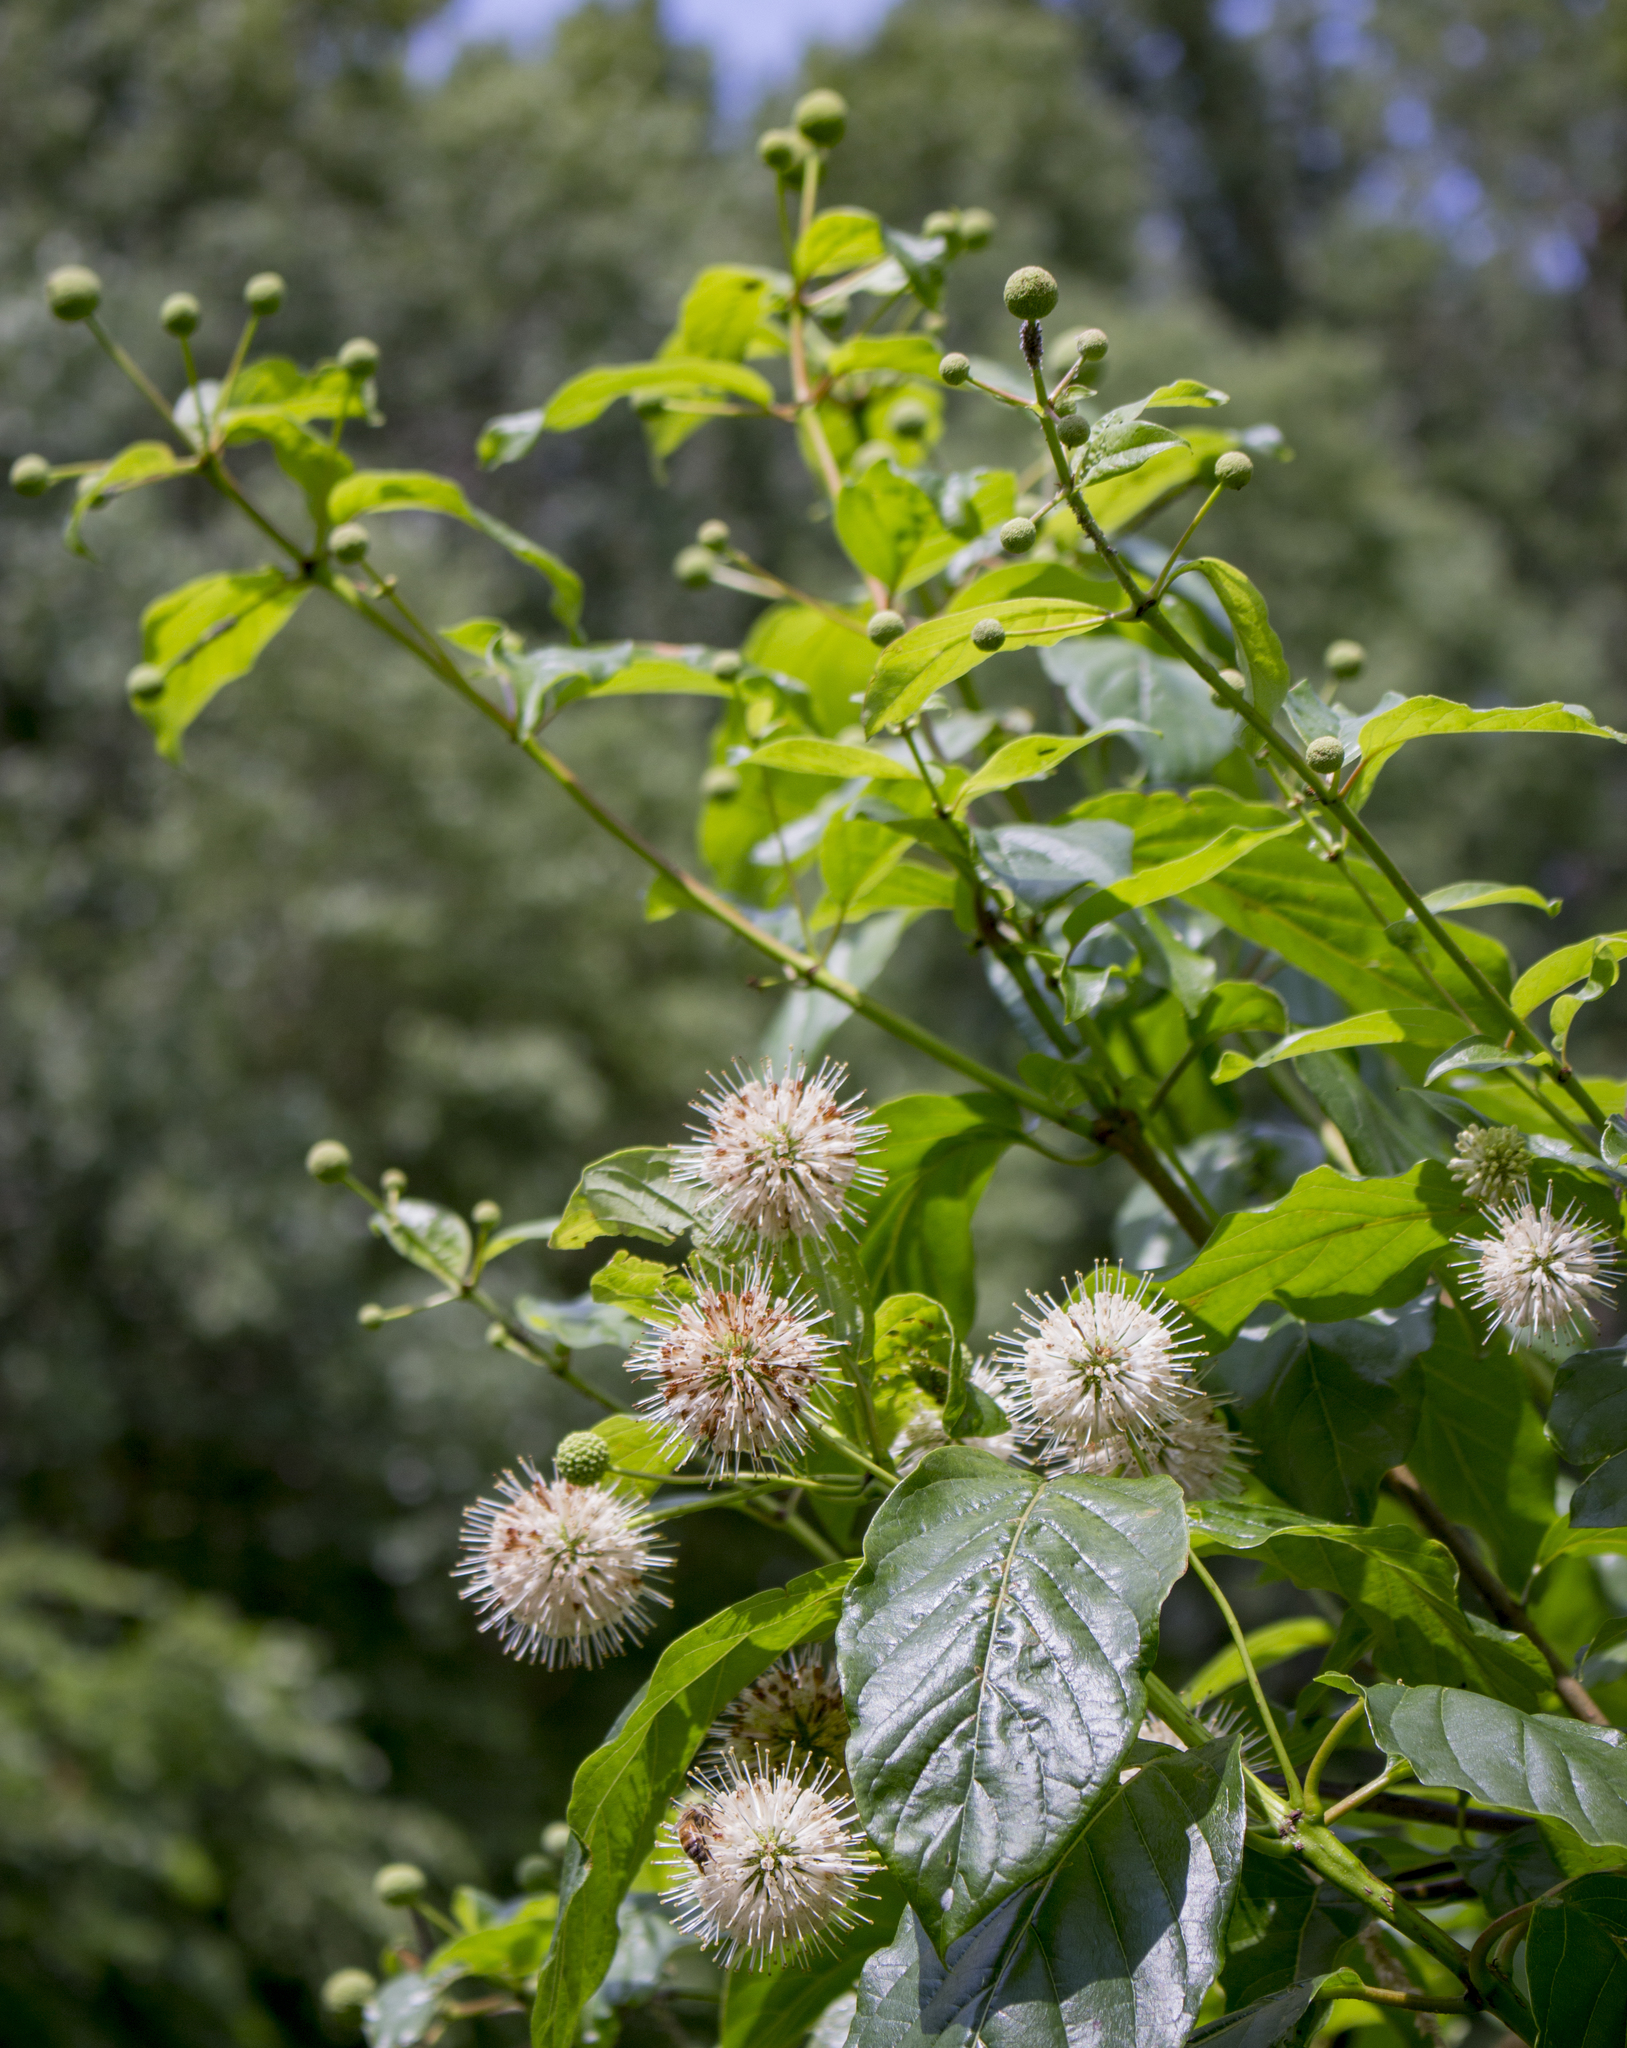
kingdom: Plantae
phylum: Tracheophyta
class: Magnoliopsida
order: Gentianales
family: Rubiaceae
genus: Cephalanthus
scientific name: Cephalanthus occidentalis
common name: Button-willow
